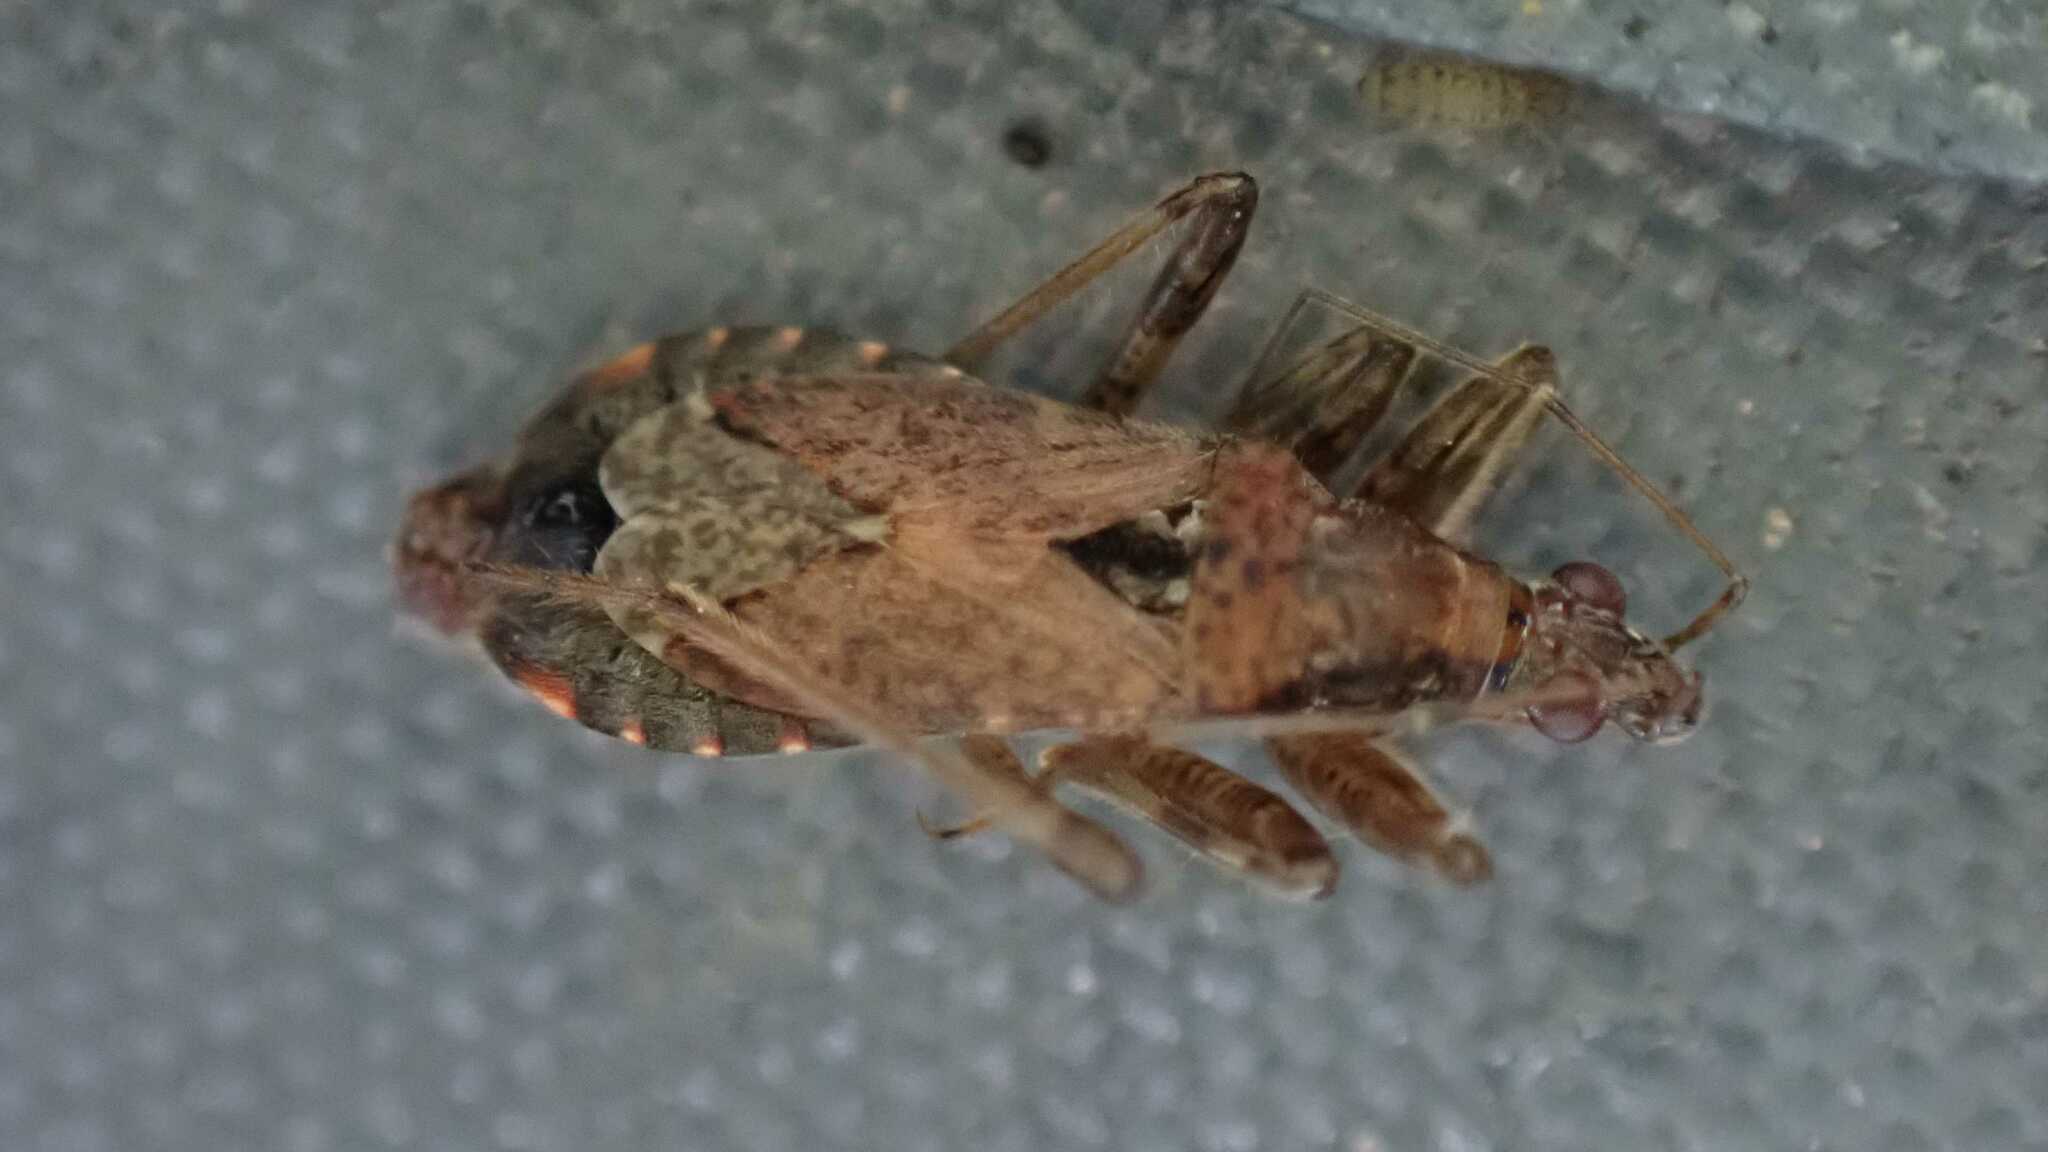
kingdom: Animalia
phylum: Arthropoda
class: Insecta
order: Hemiptera
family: Nabidae
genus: Himacerus
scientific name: Himacerus mirmicoides
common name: Ant damsel bug
